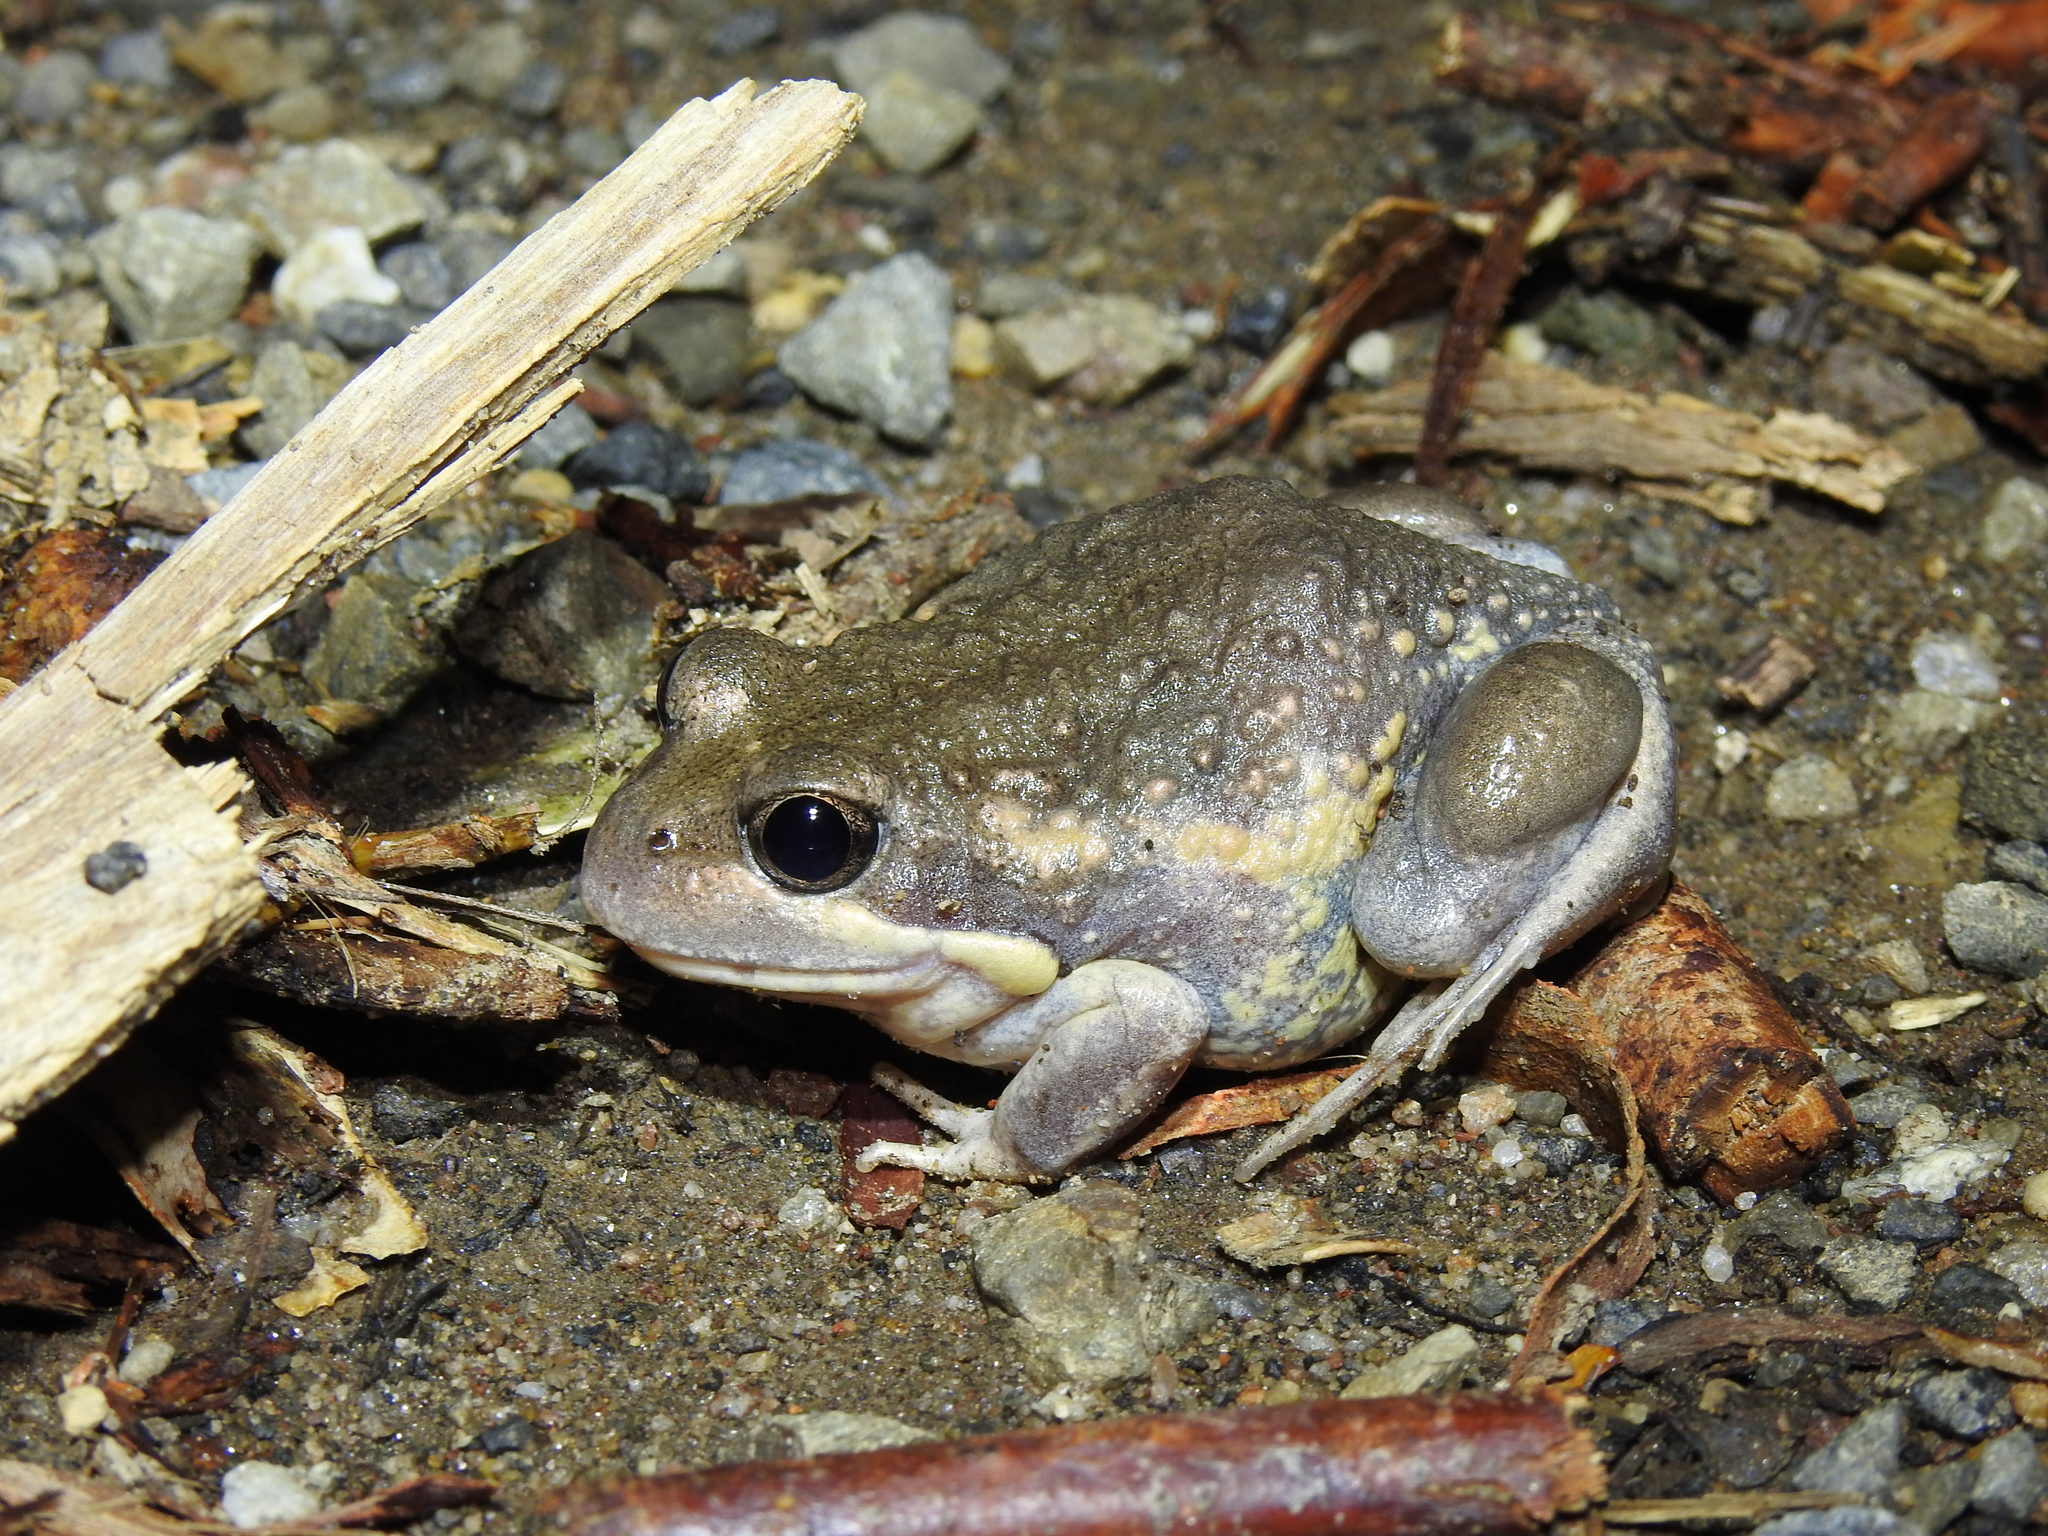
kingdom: Animalia
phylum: Chordata
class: Amphibia
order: Anura
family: Limnodynastidae
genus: Limnodynastes
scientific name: Limnodynastes dumerilii
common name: Banjo frog
